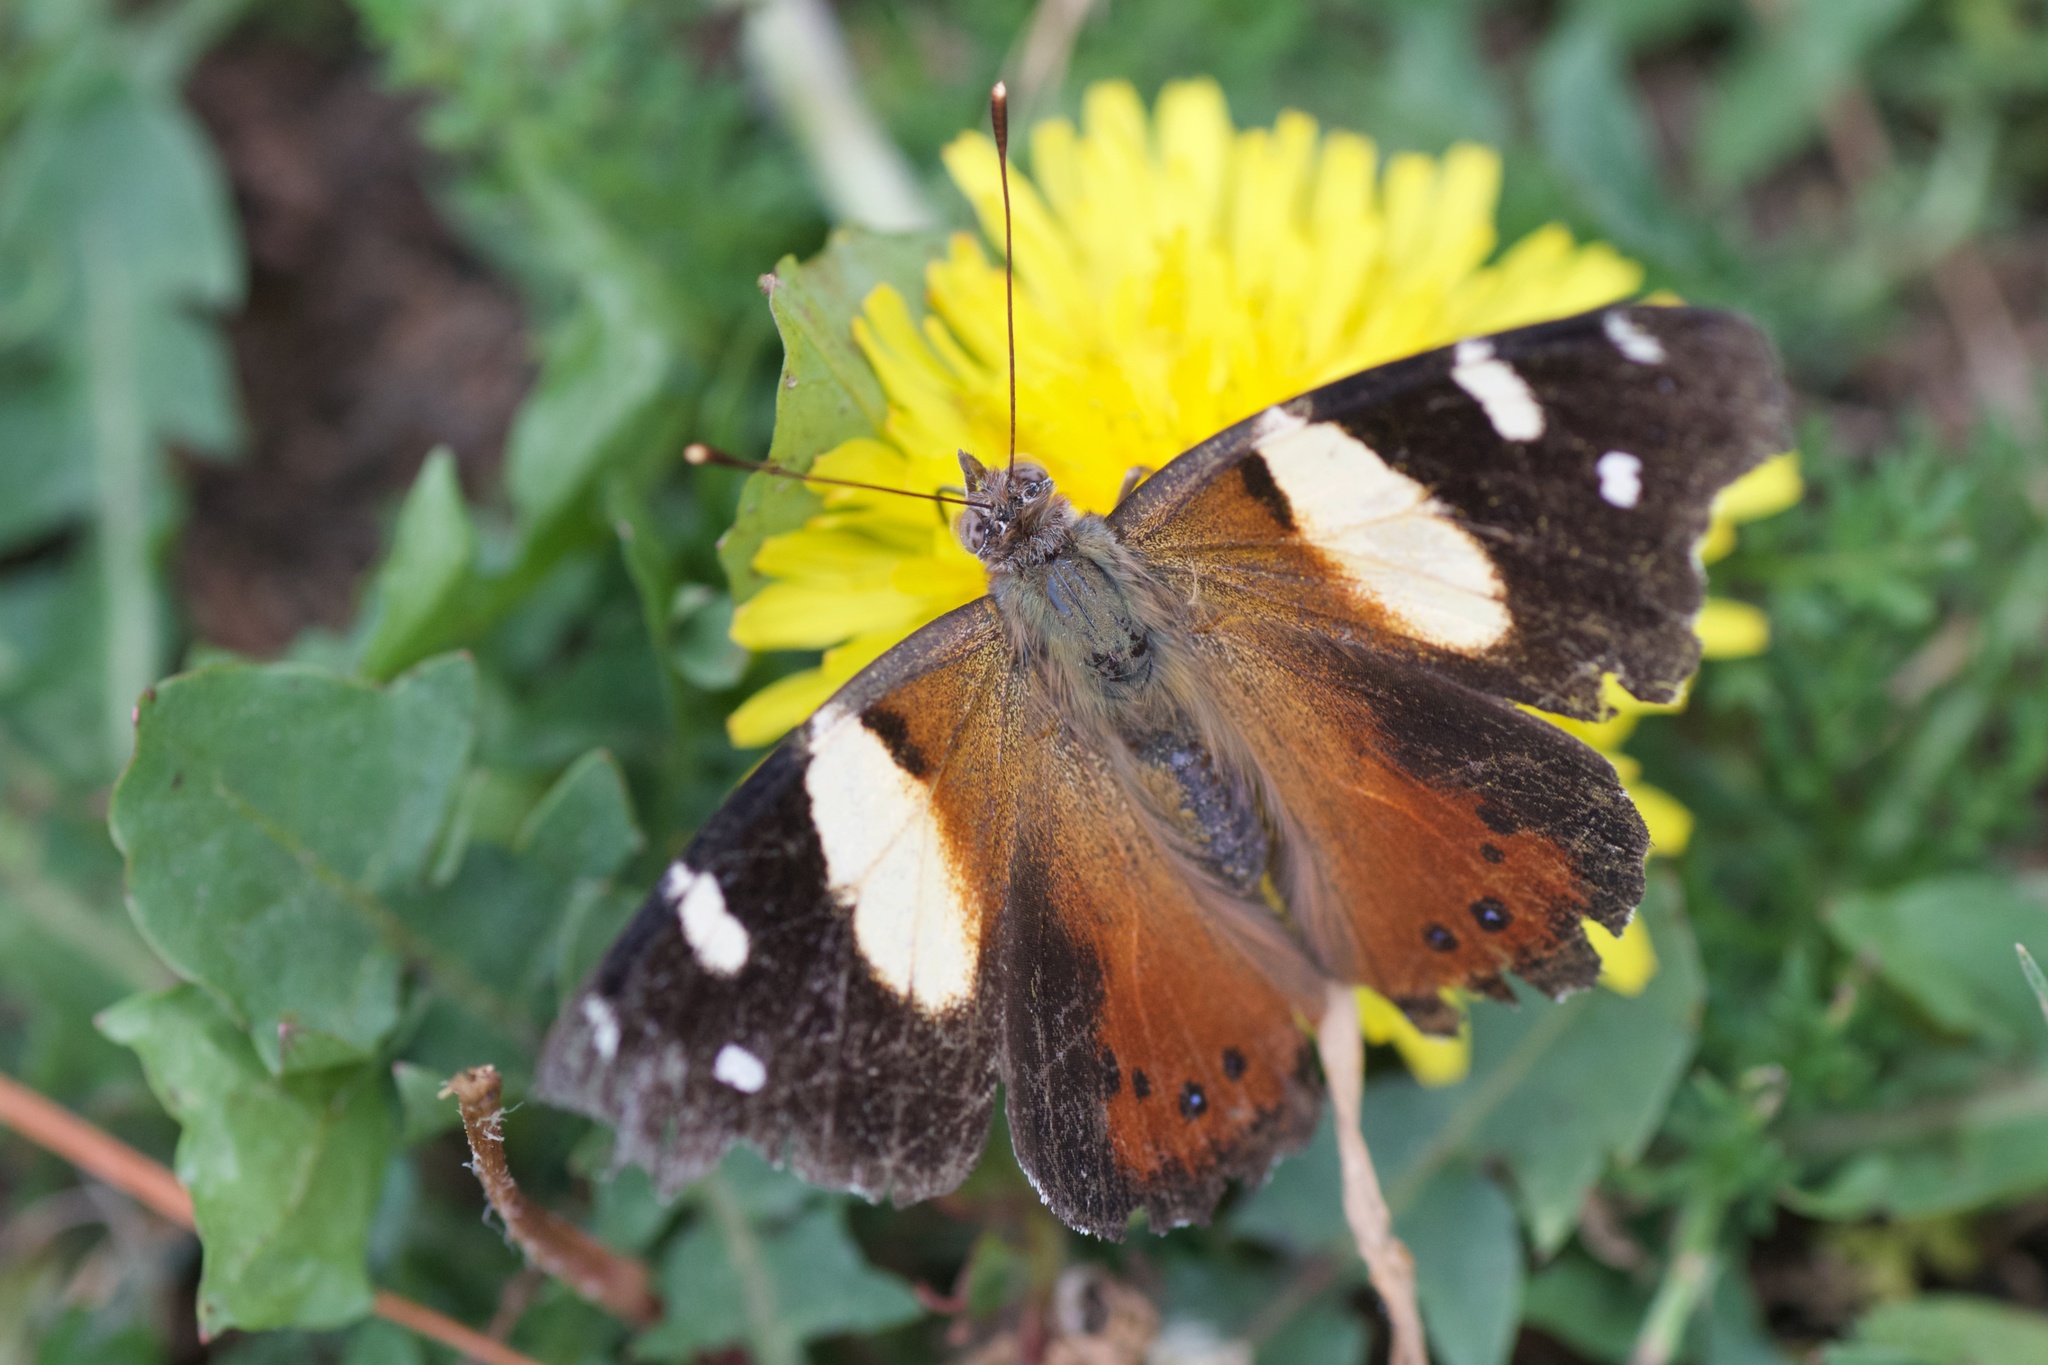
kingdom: Animalia
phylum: Arthropoda
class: Insecta
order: Lepidoptera
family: Nymphalidae
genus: Vanessa
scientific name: Vanessa itea
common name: Yellow admiral
